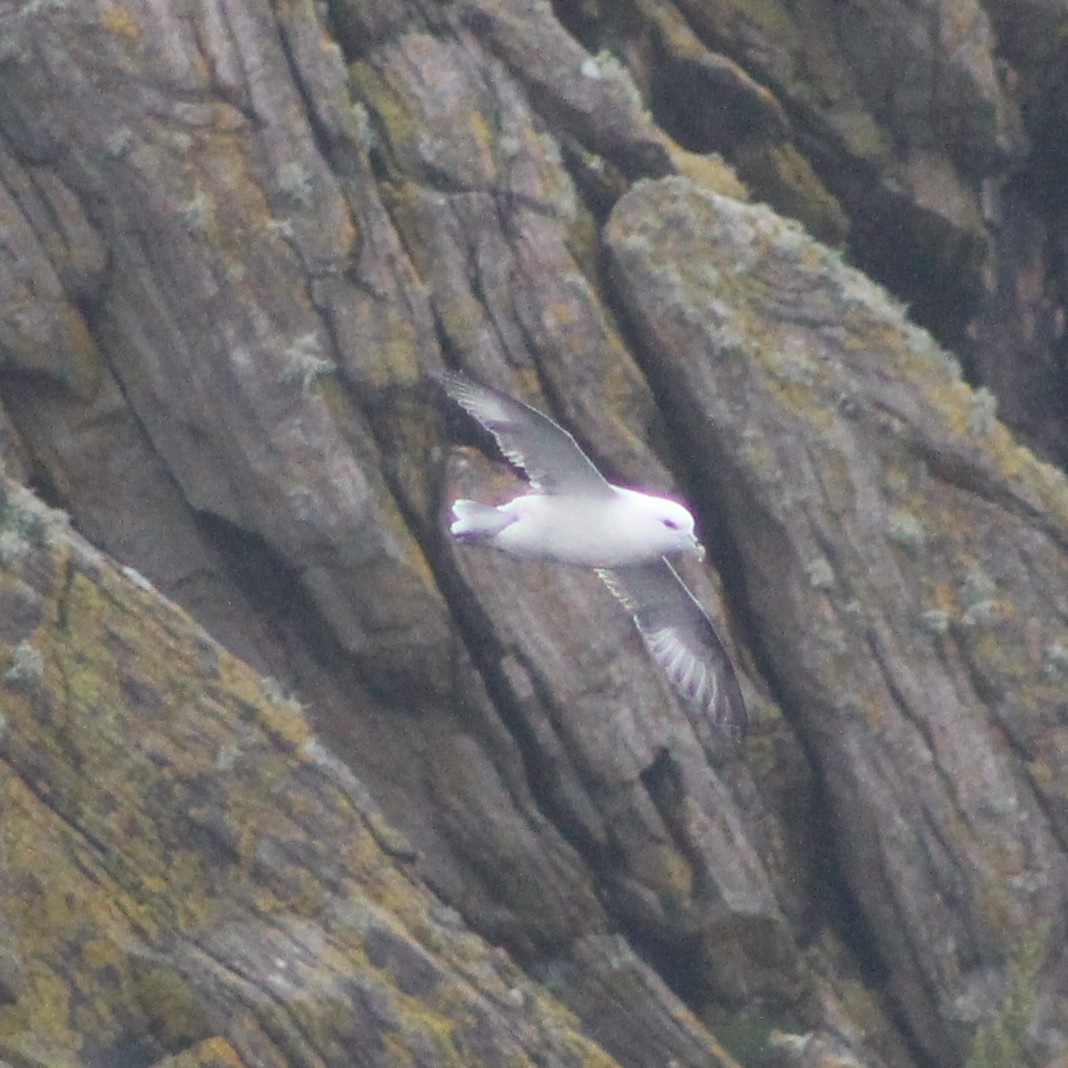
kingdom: Animalia
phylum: Chordata
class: Aves
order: Procellariiformes
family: Procellariidae
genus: Fulmarus
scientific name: Fulmarus glacialis
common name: Northern fulmar
